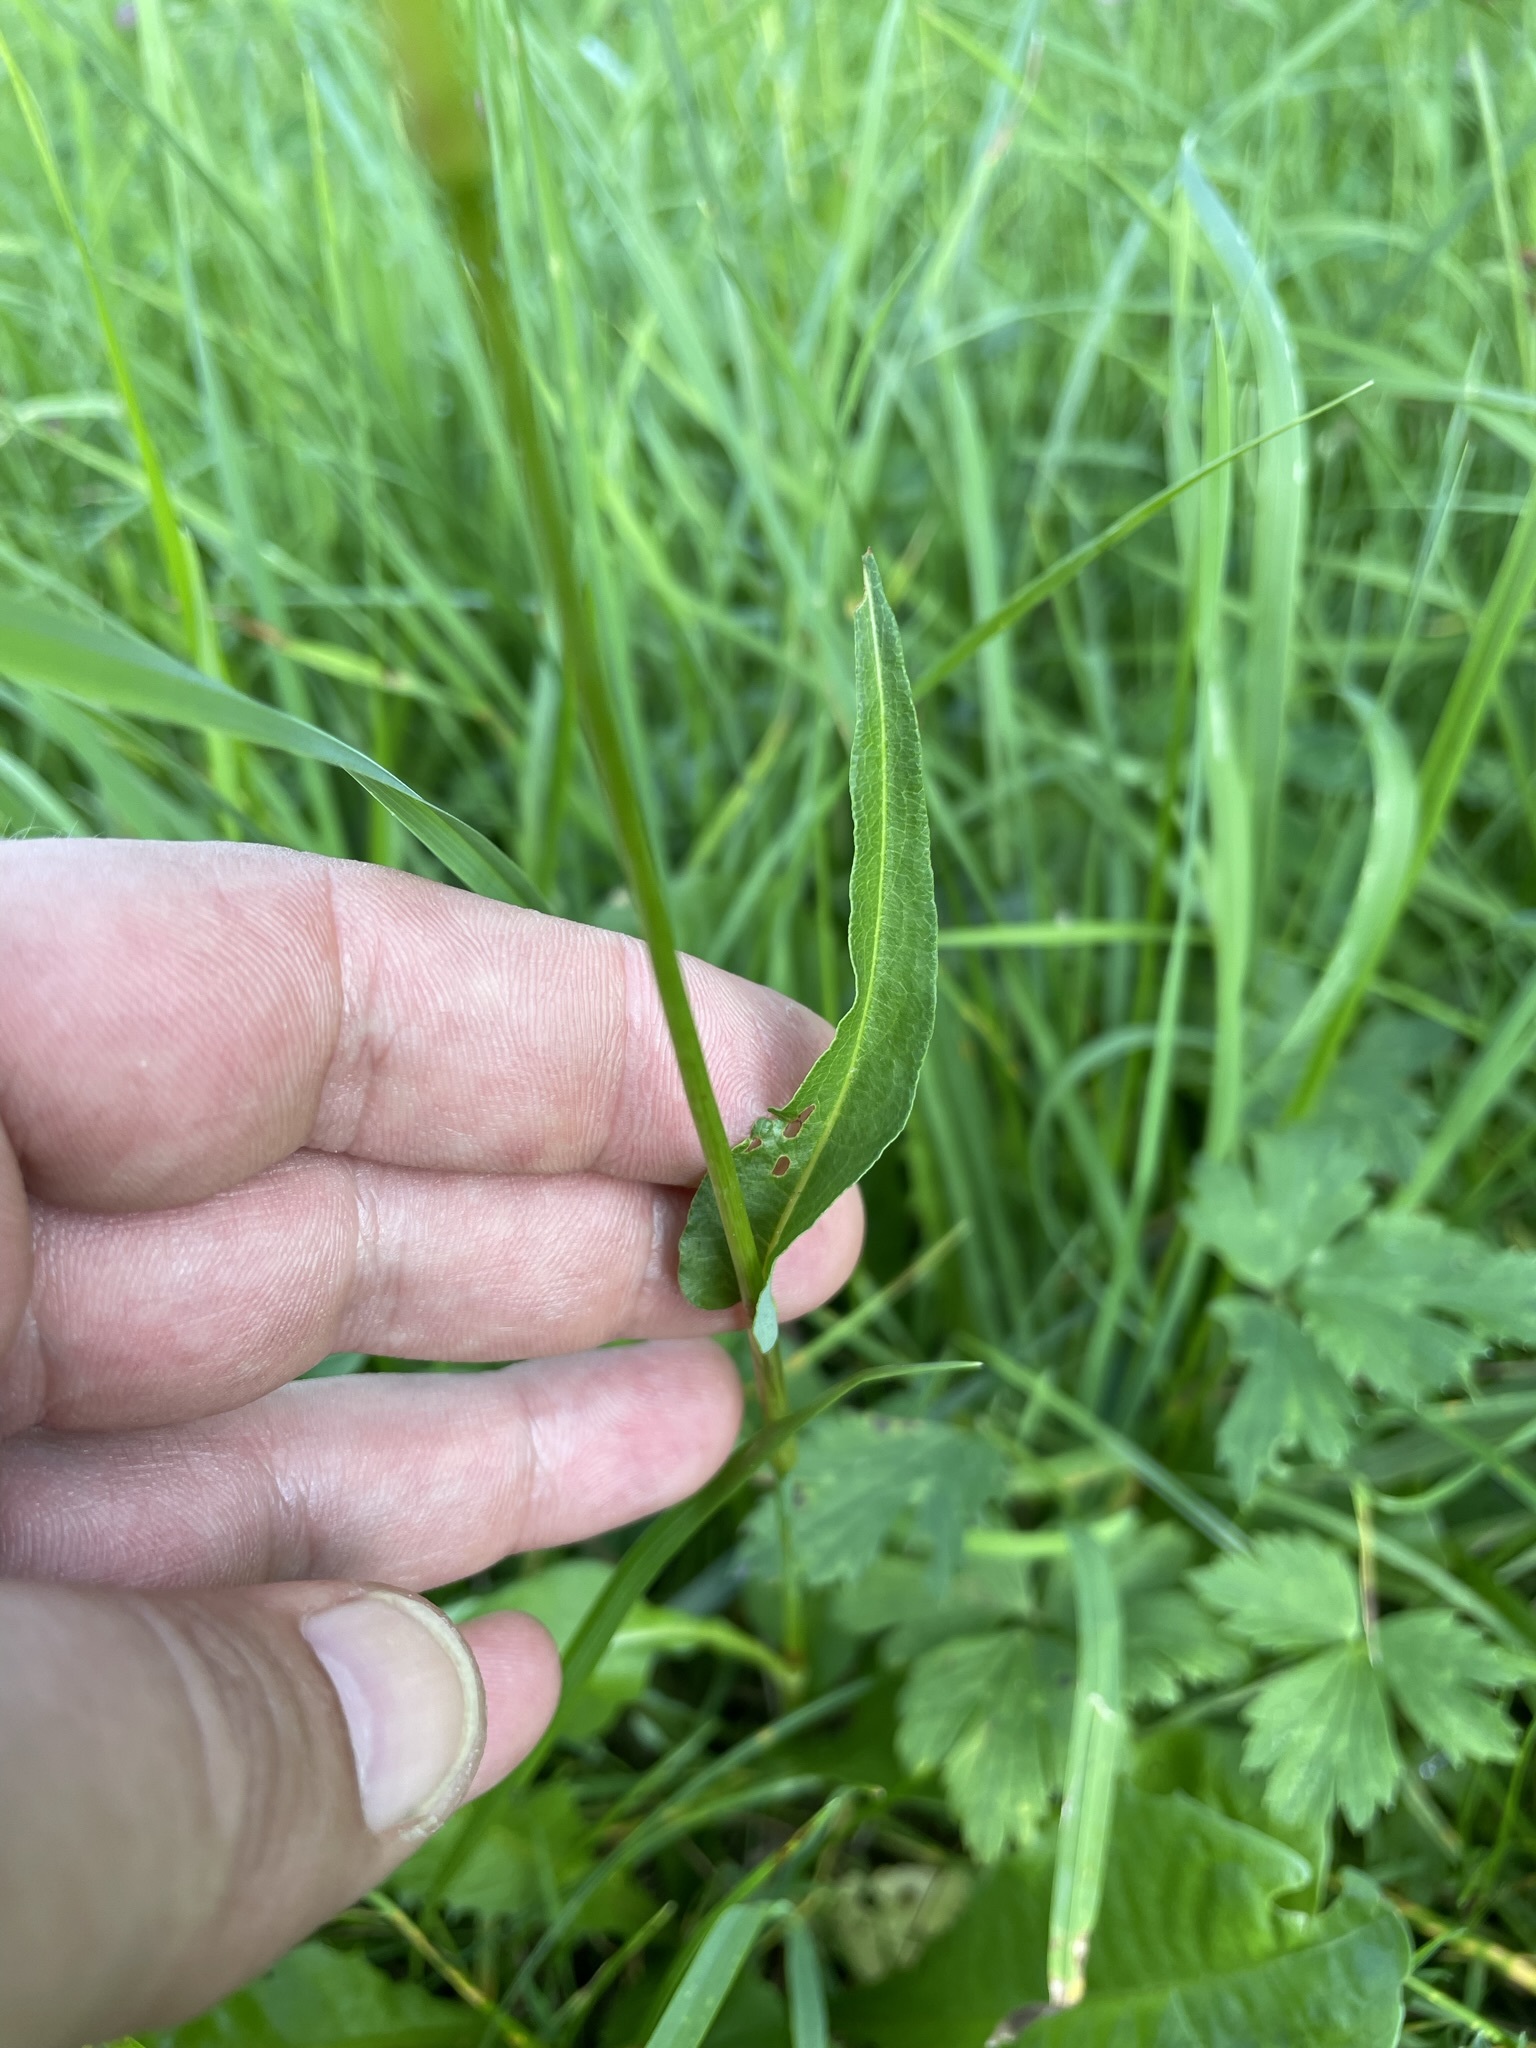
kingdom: Plantae
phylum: Tracheophyta
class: Magnoliopsida
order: Caryophyllales
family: Polygonaceae
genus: Bistorta
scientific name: Bistorta officinalis
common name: Common bistort
